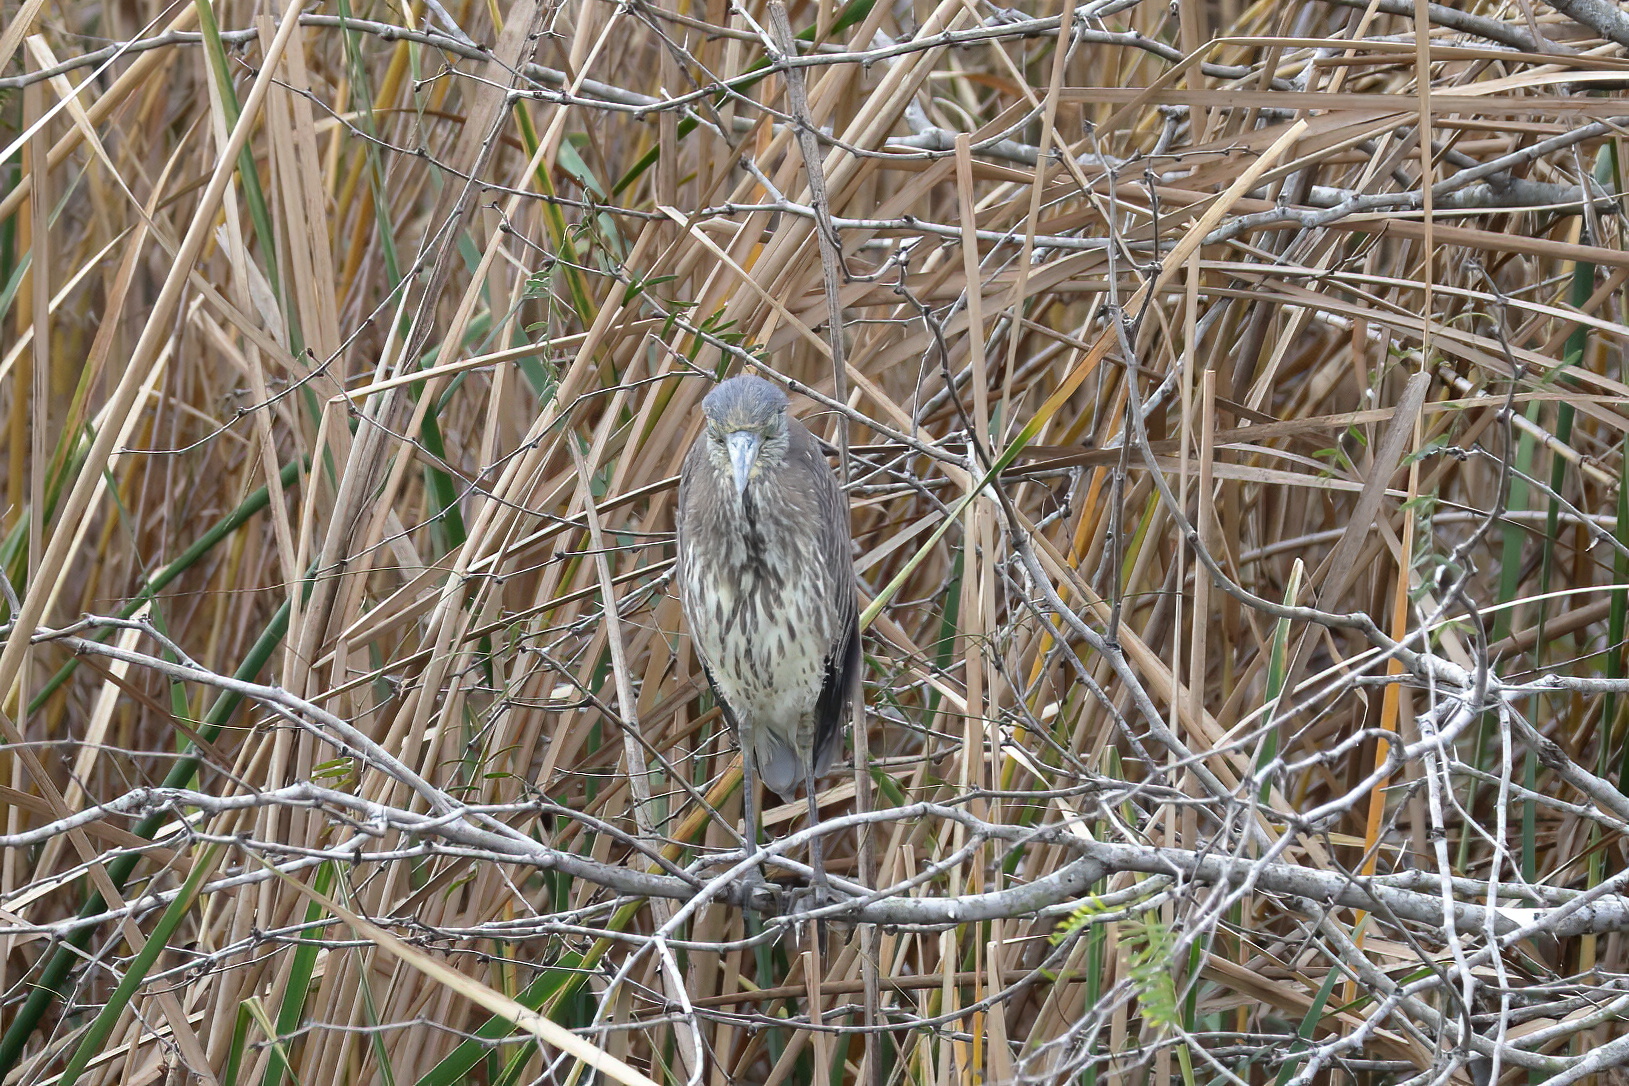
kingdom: Animalia
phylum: Chordata
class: Aves
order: Pelecaniformes
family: Ardeidae
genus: Nyctanassa
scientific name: Nyctanassa violacea
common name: Yellow-crowned night heron
